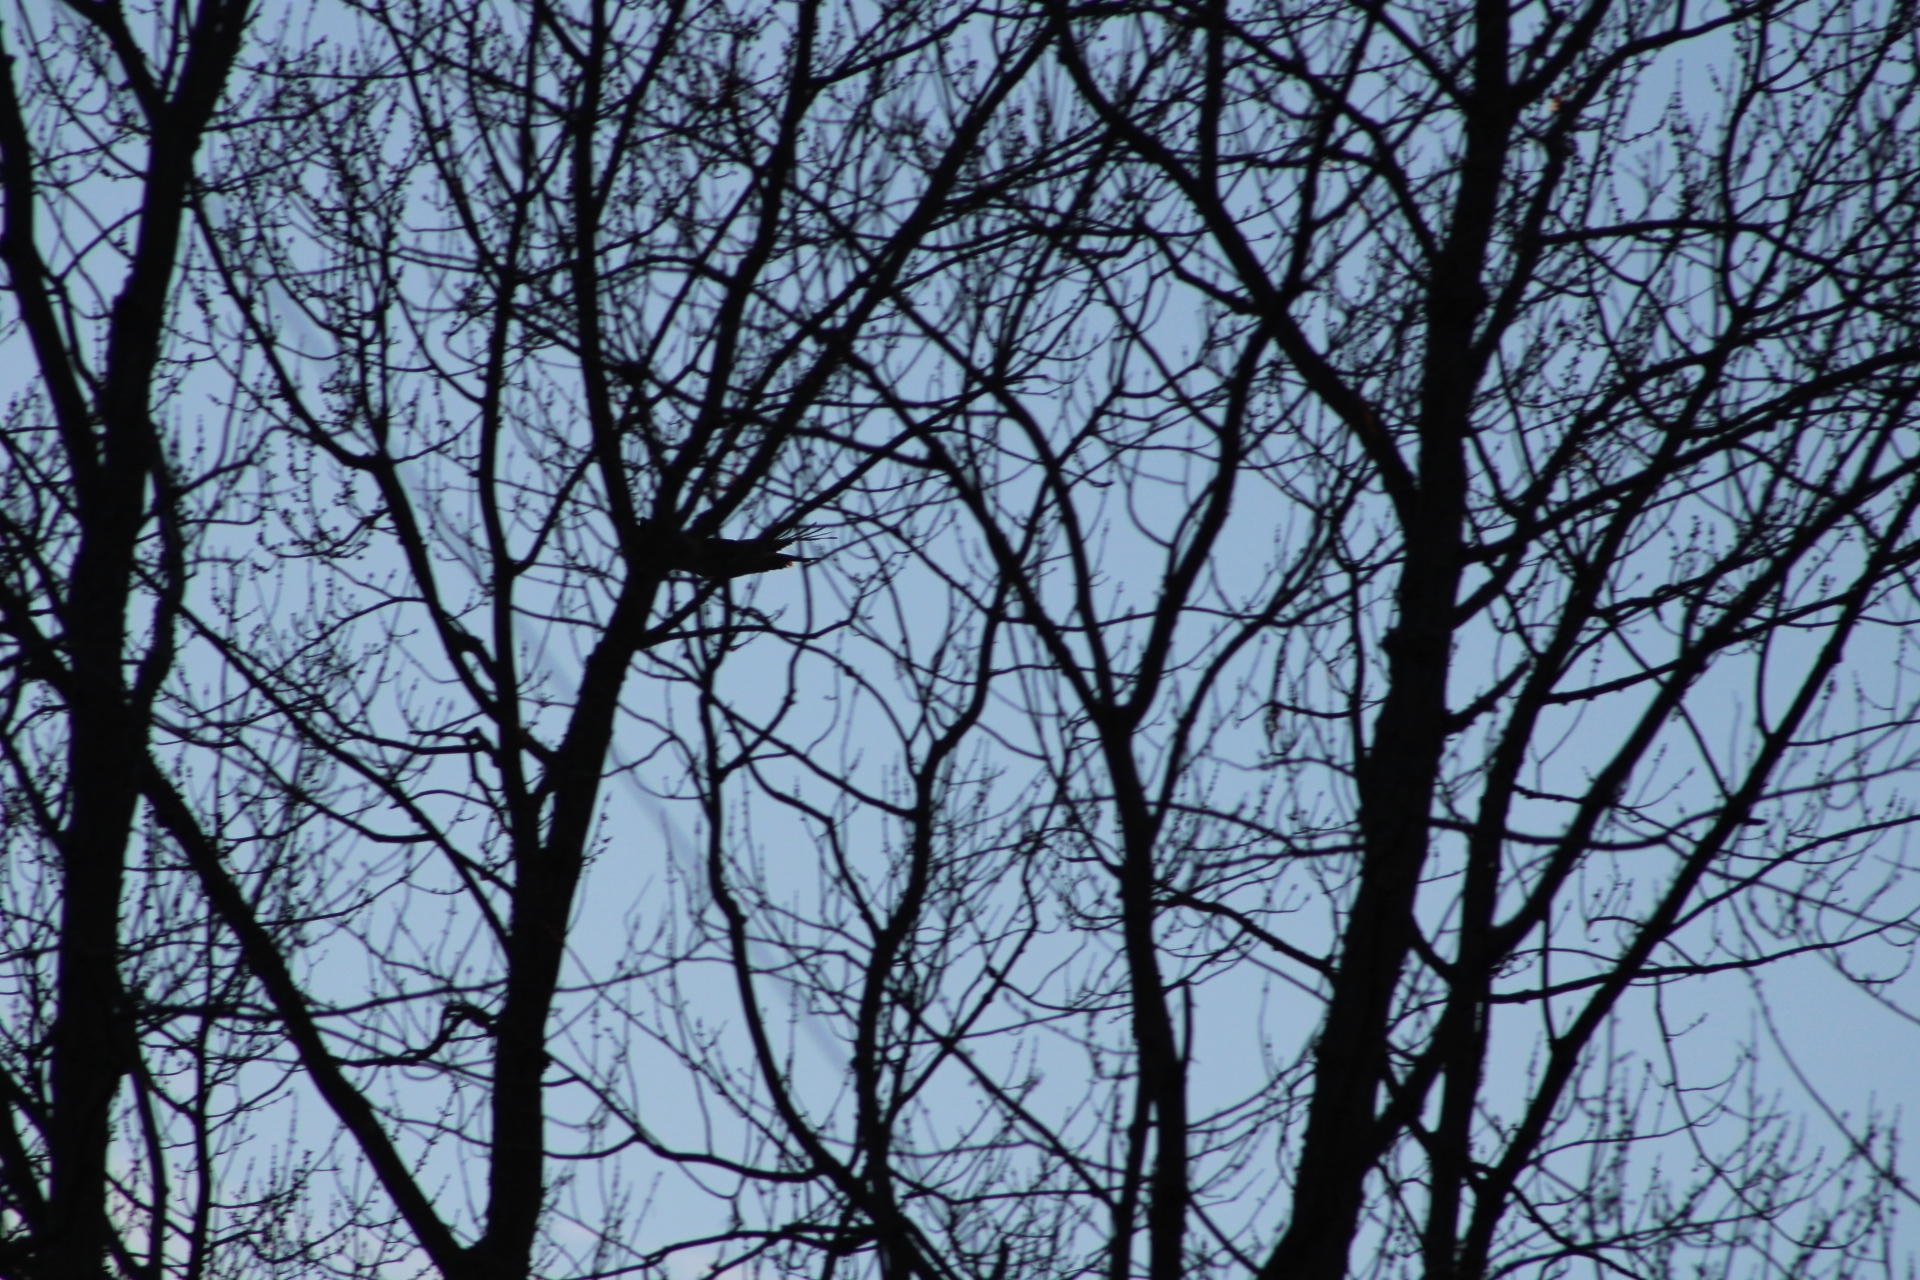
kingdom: Animalia
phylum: Chordata
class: Aves
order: Accipitriformes
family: Accipitridae
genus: Buteo
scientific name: Buteo jamaicensis
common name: Red-tailed hawk
